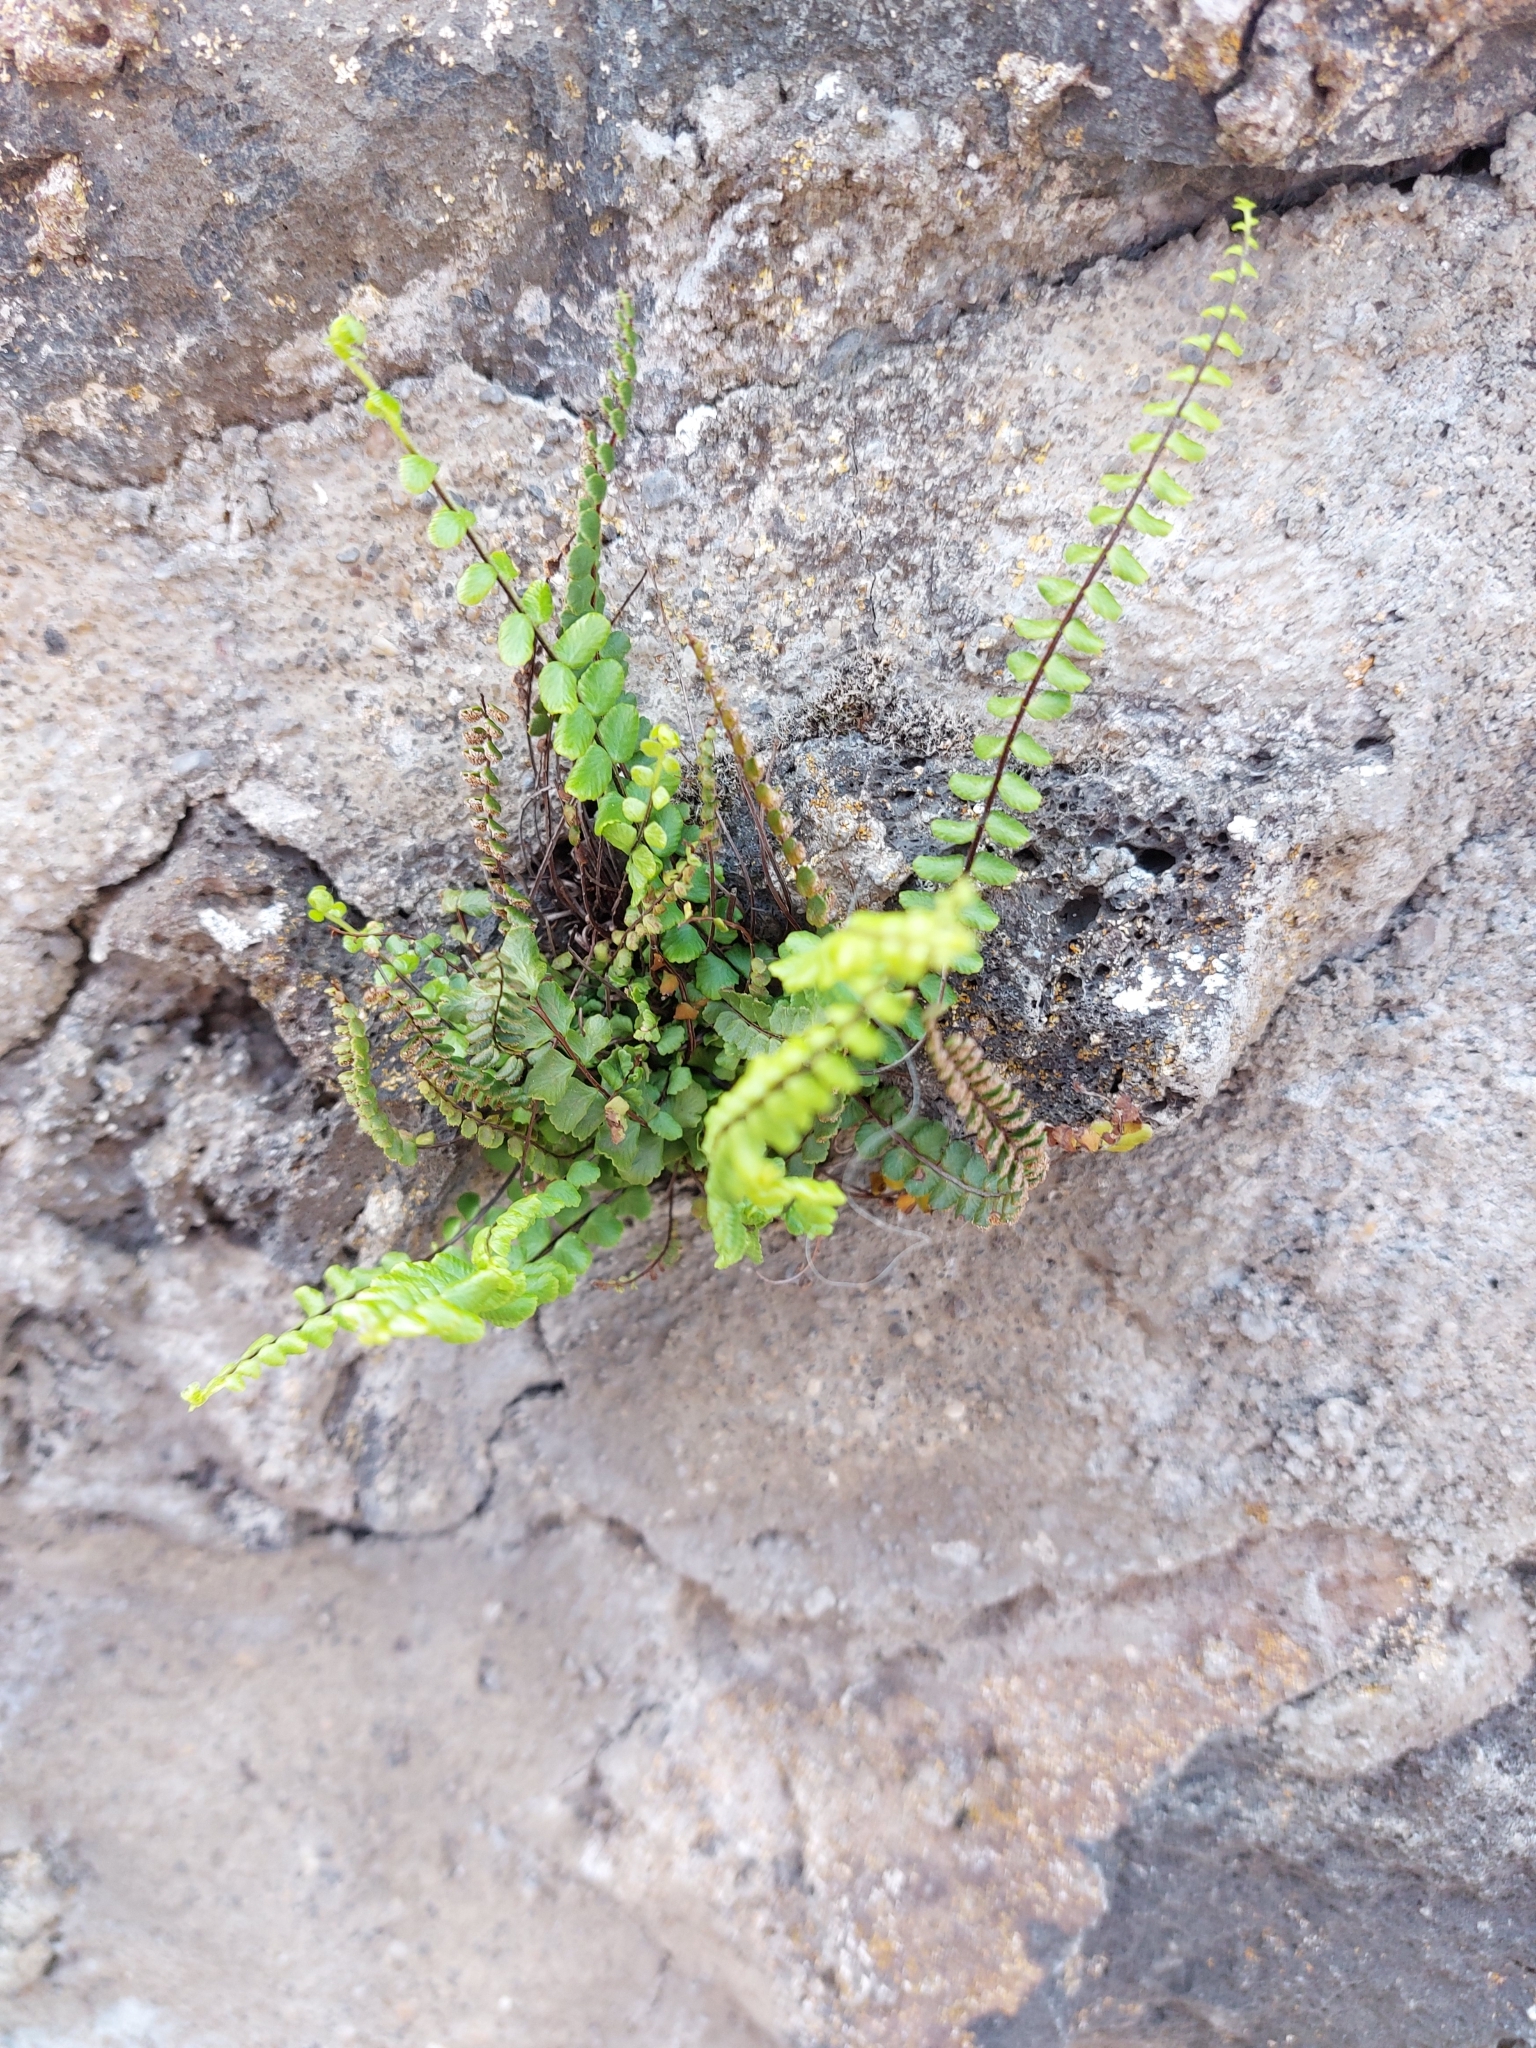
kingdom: Plantae
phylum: Tracheophyta
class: Polypodiopsida
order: Polypodiales
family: Aspleniaceae
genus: Asplenium
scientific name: Asplenium trichomanes
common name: Maidenhair spleenwort
